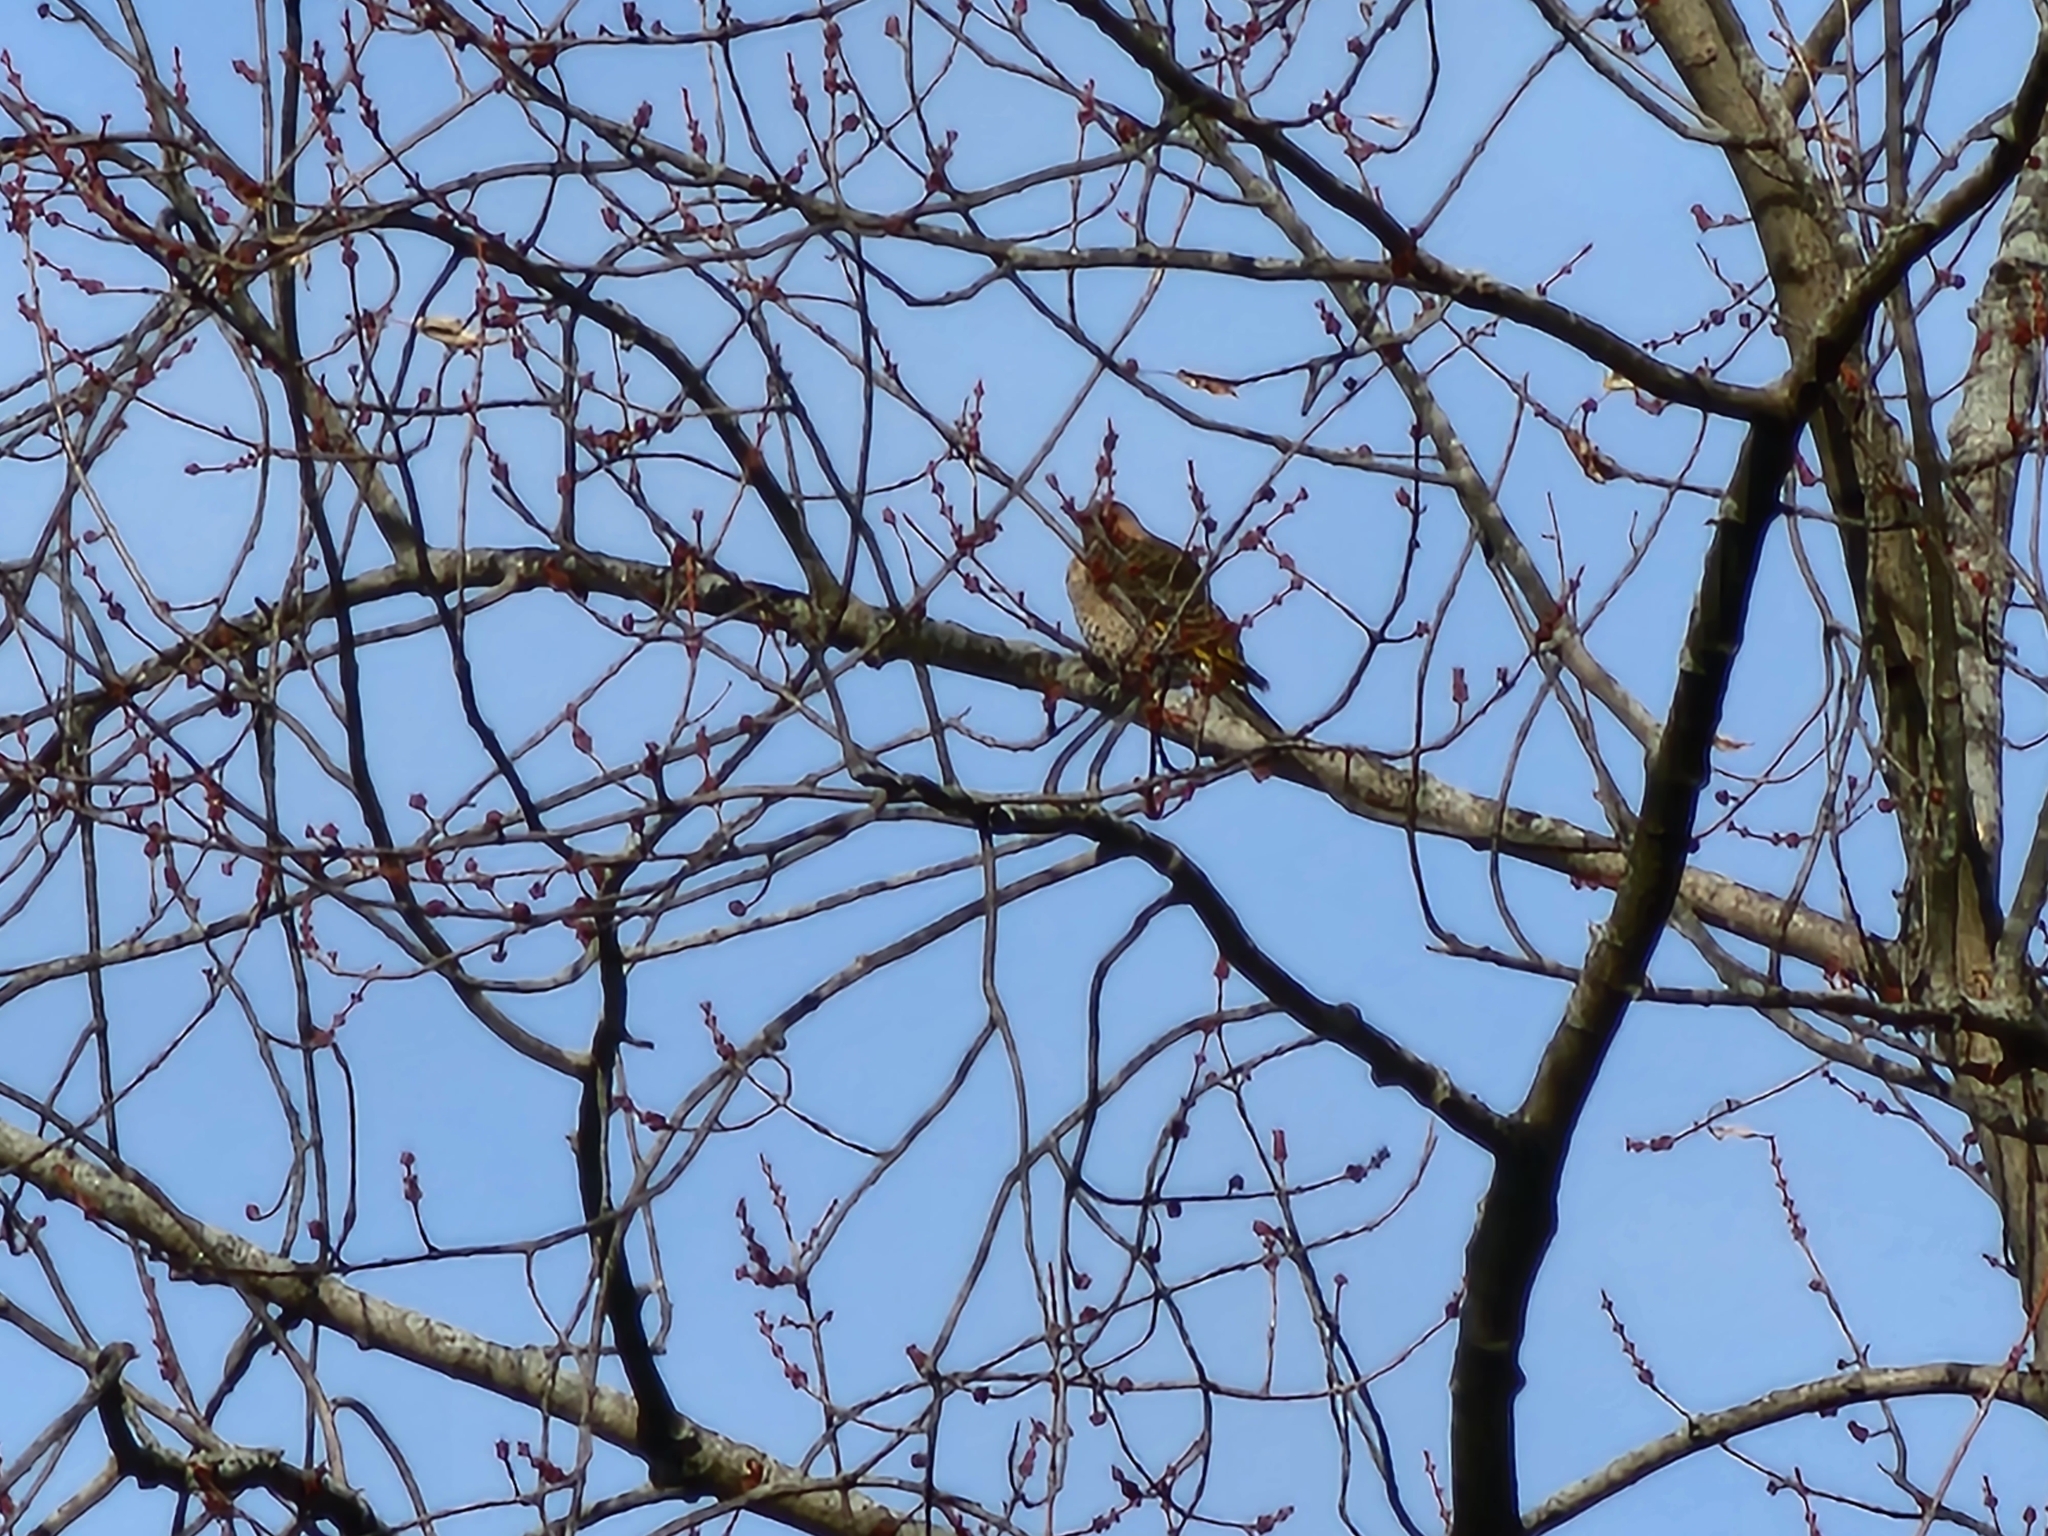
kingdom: Animalia
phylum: Chordata
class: Aves
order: Piciformes
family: Picidae
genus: Colaptes
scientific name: Colaptes auratus
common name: Northern flicker
